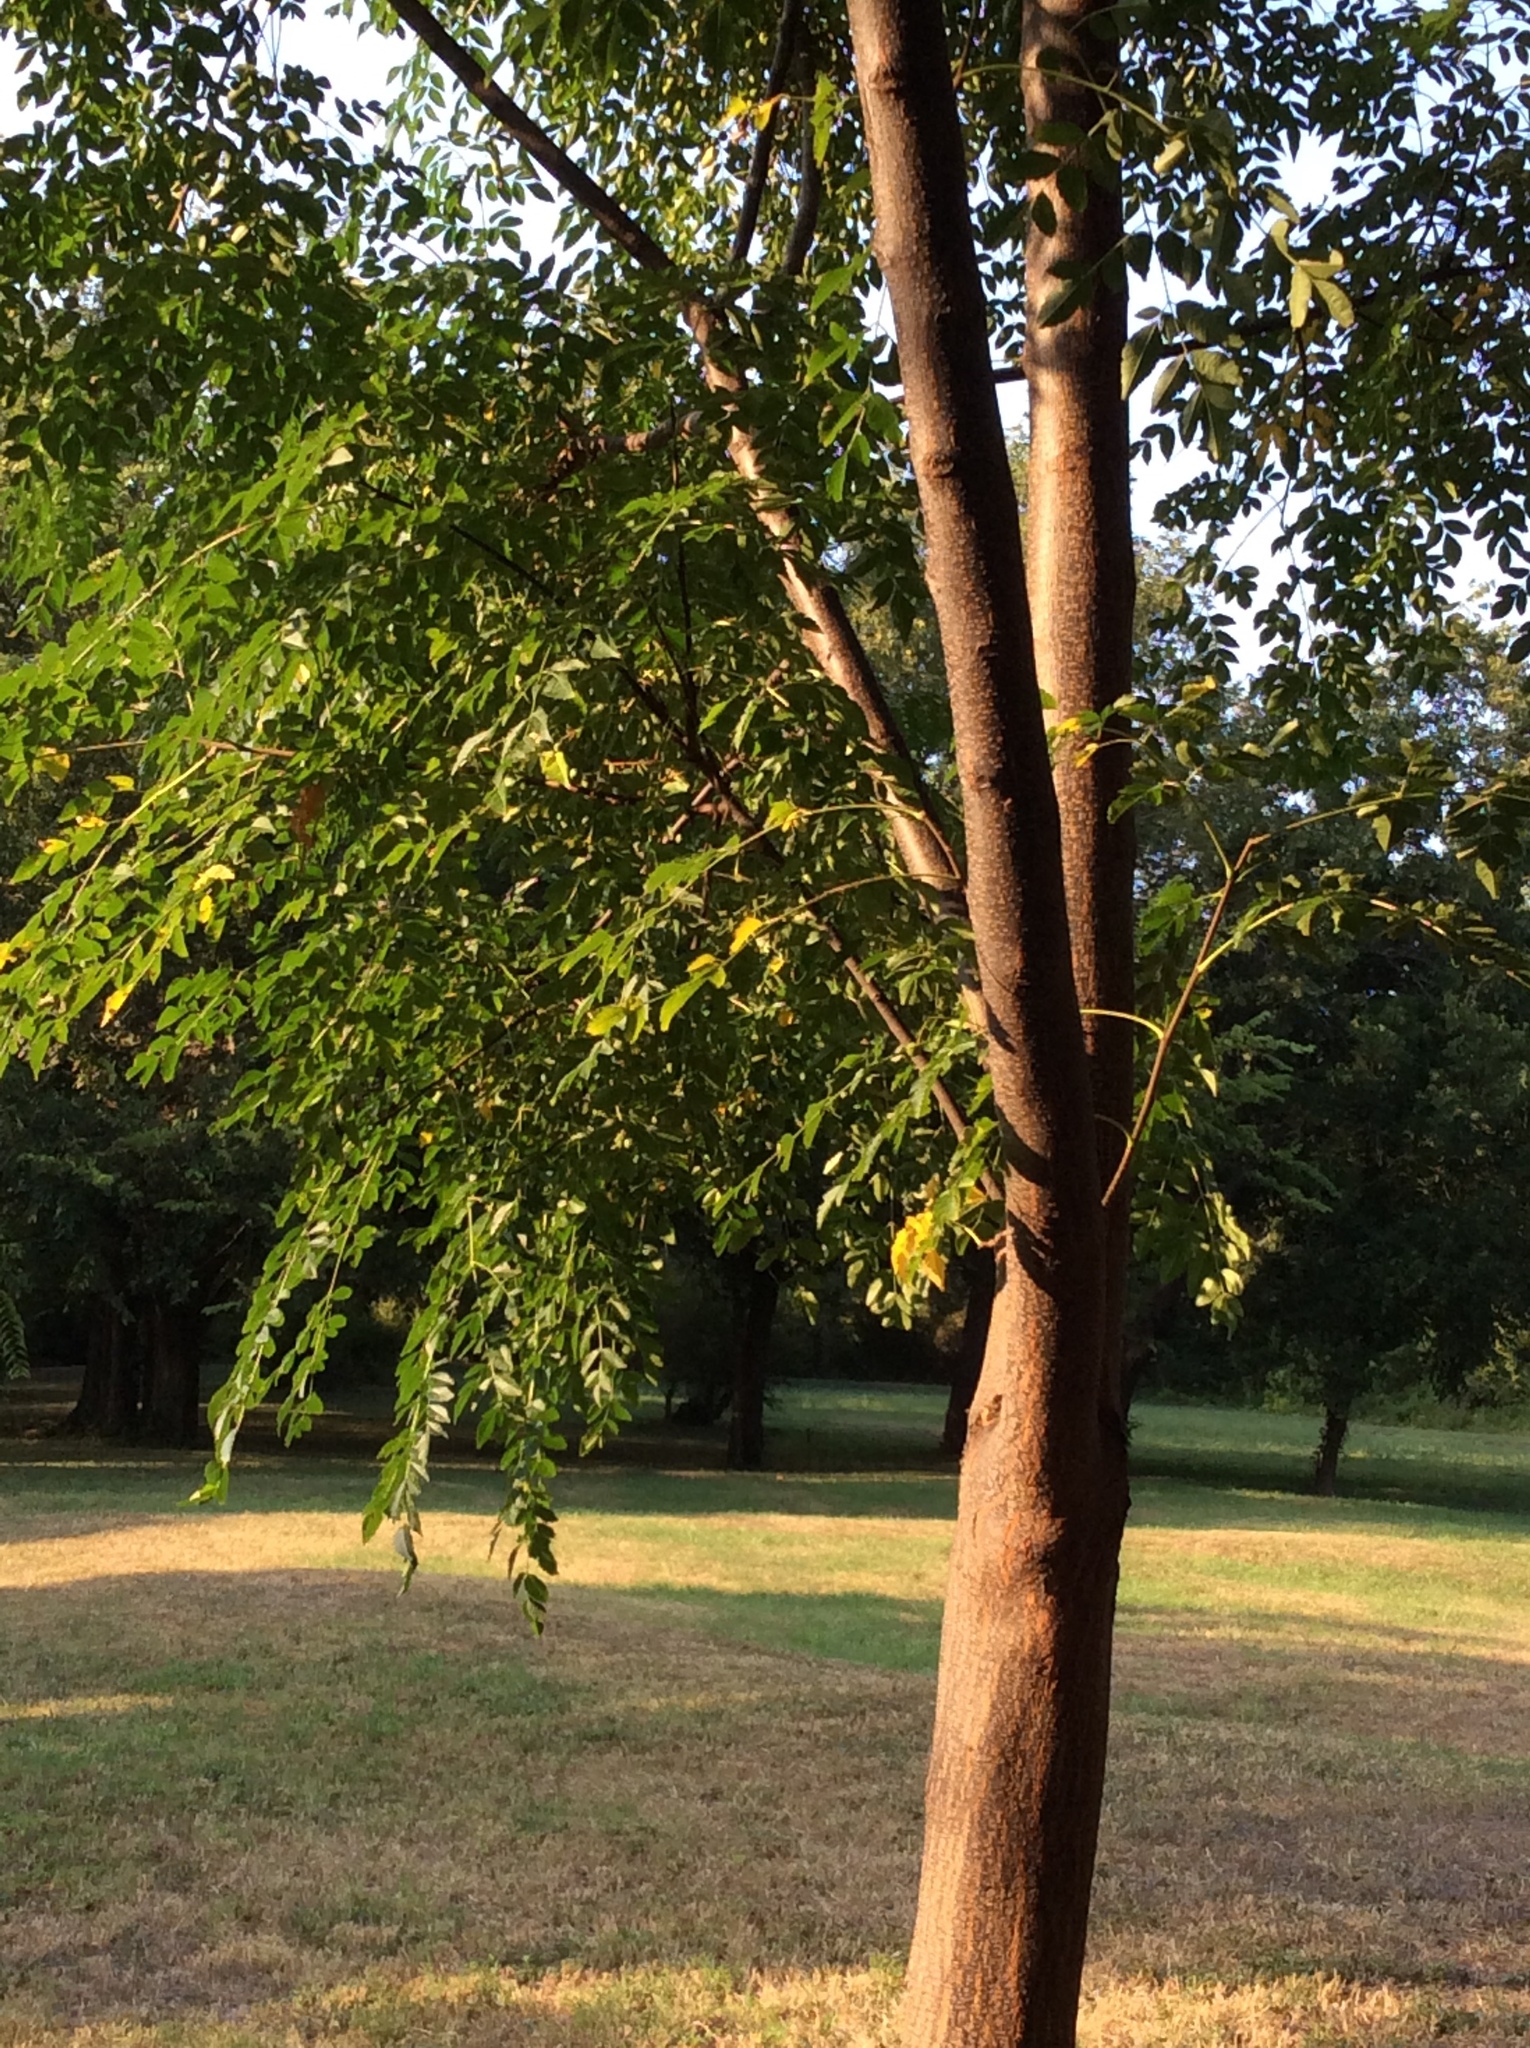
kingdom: Plantae
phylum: Tracheophyta
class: Magnoliopsida
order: Sapindales
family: Meliaceae
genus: Melia
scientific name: Melia azedarach
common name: Chinaberrytree
